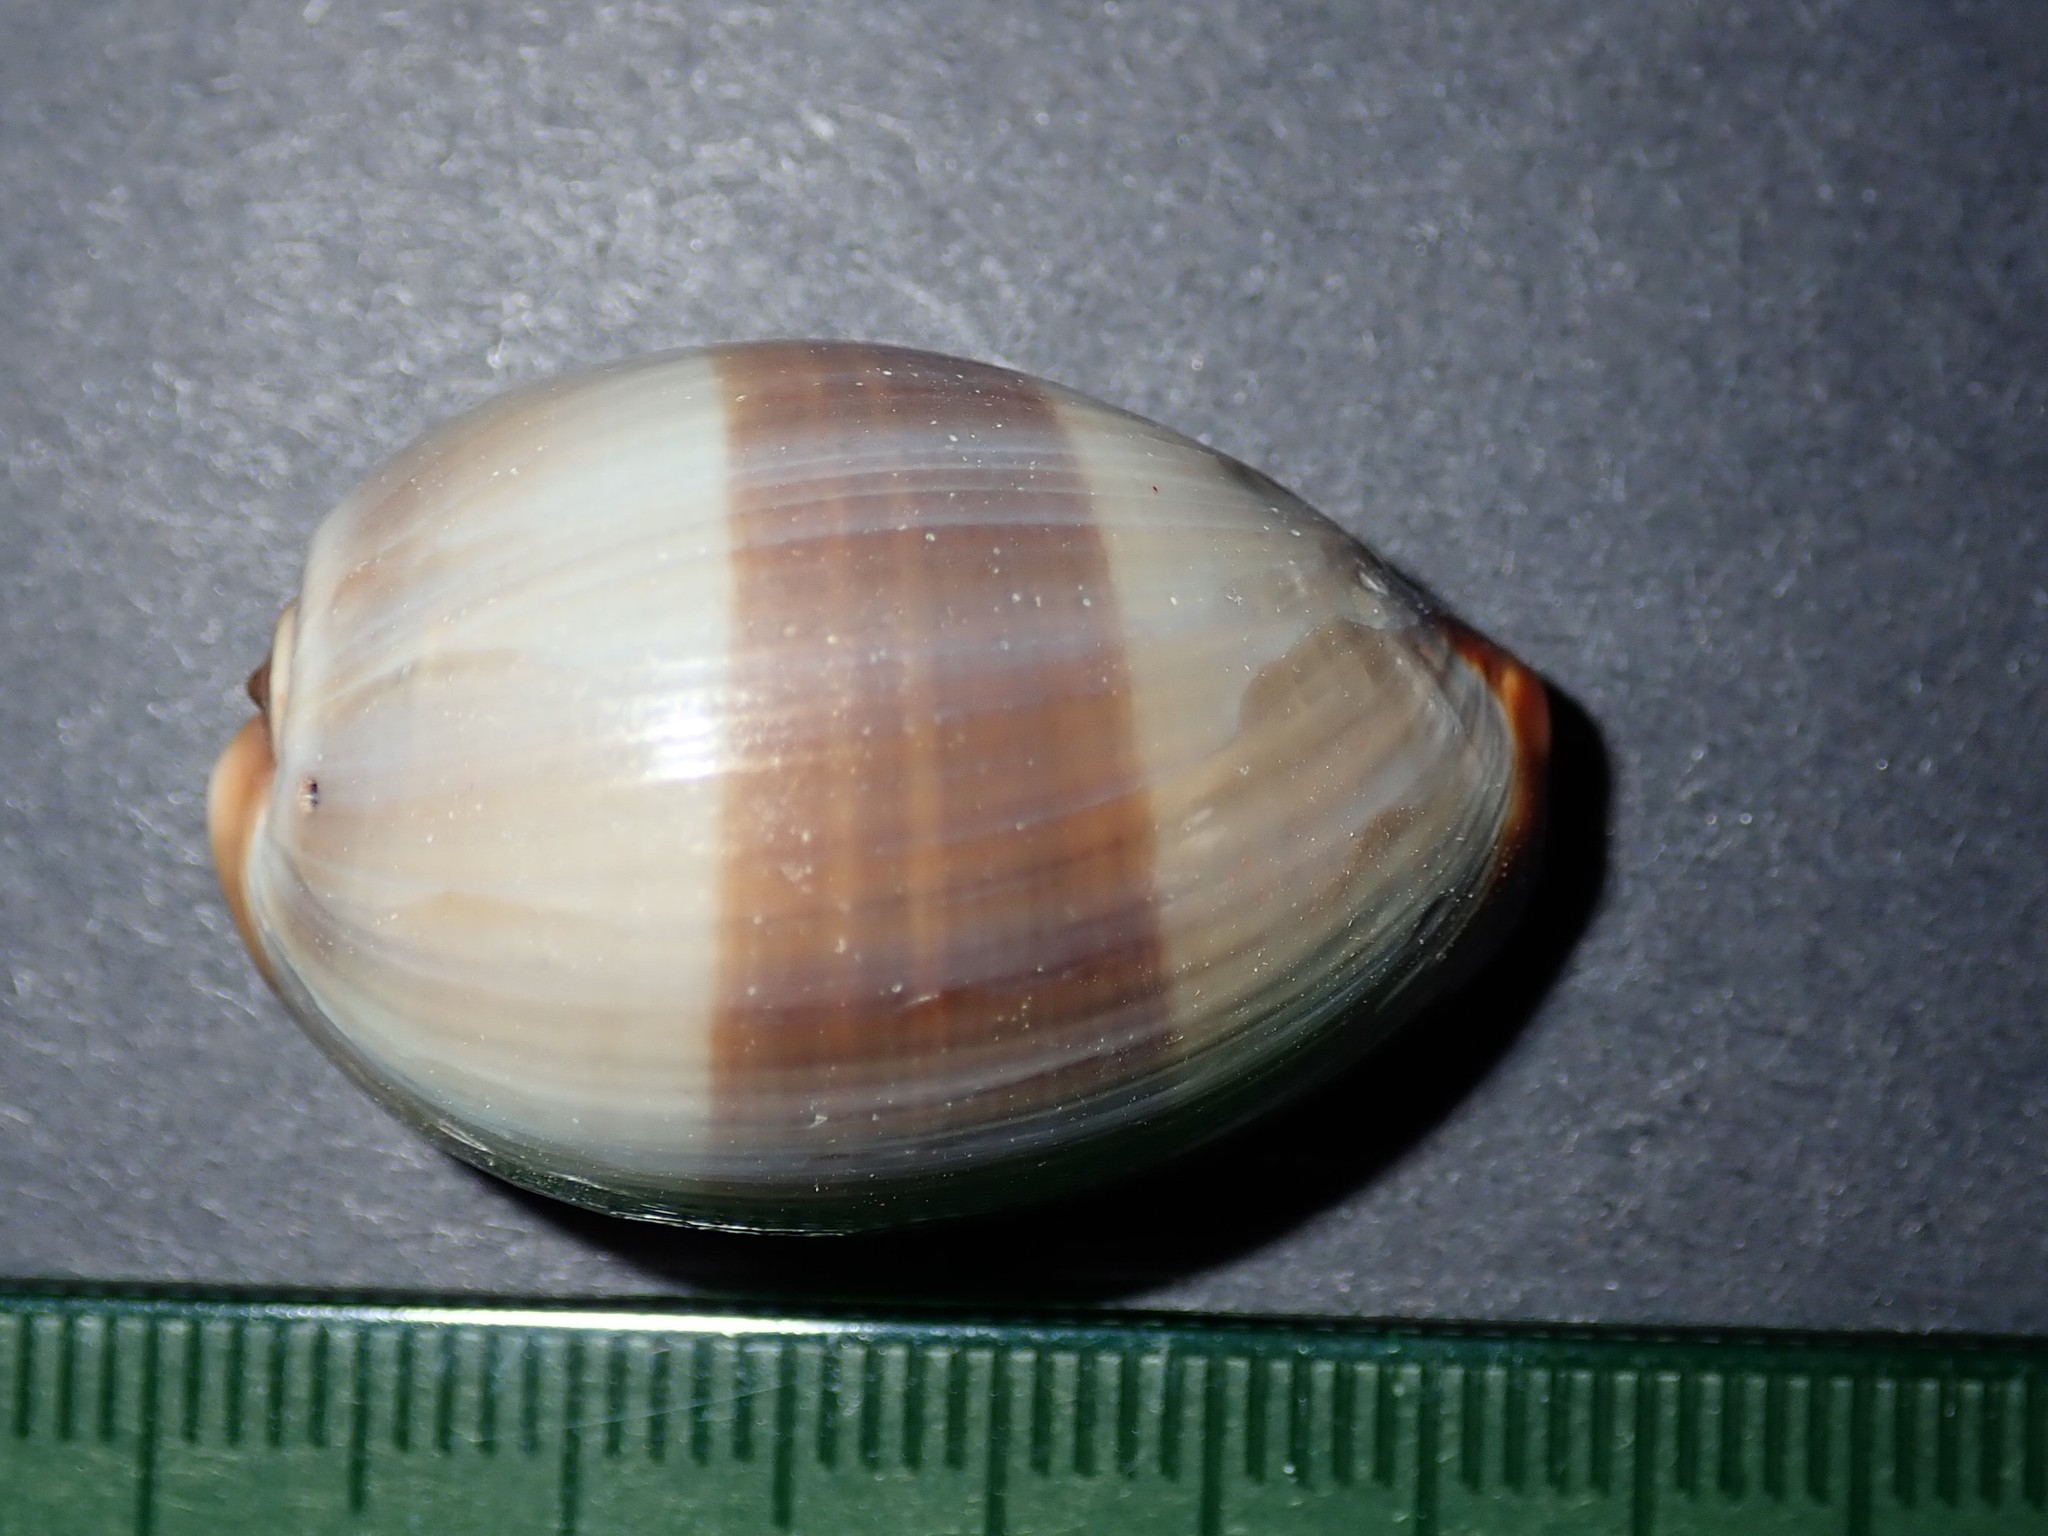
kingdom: Animalia
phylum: Mollusca
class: Gastropoda
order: Littorinimorpha
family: Cypraeidae
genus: Monetaria
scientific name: Monetaria caputserpentis
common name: Serpent's head cowrie
